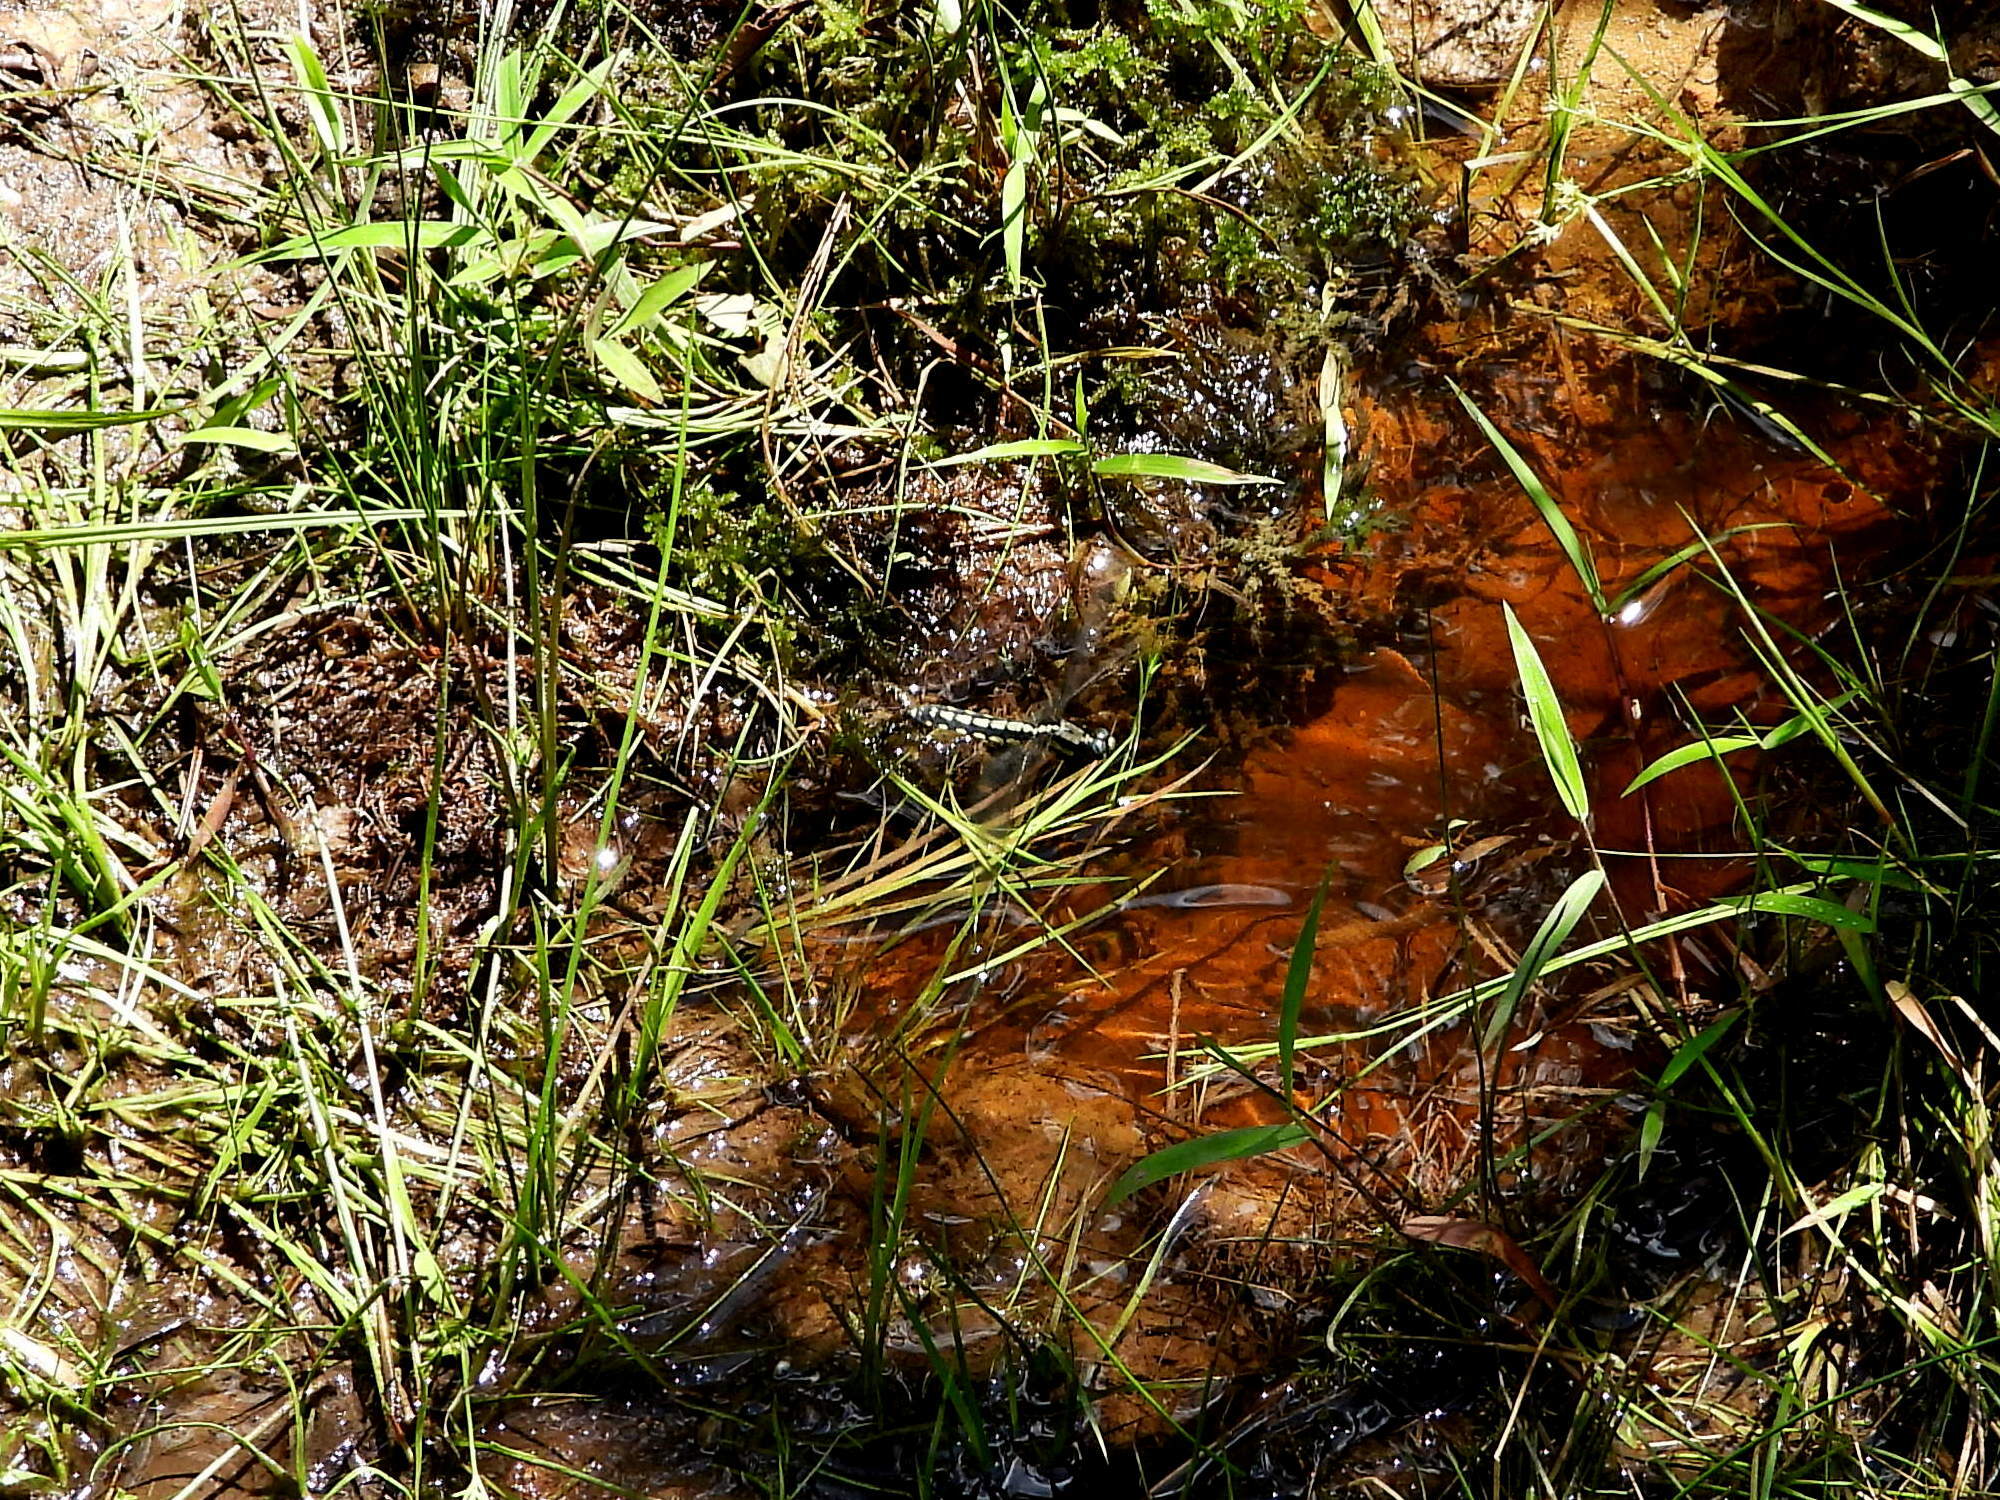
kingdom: Animalia
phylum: Arthropoda
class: Insecta
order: Odonata
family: Libellulidae
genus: Orthetrum
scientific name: Orthetrum internum
